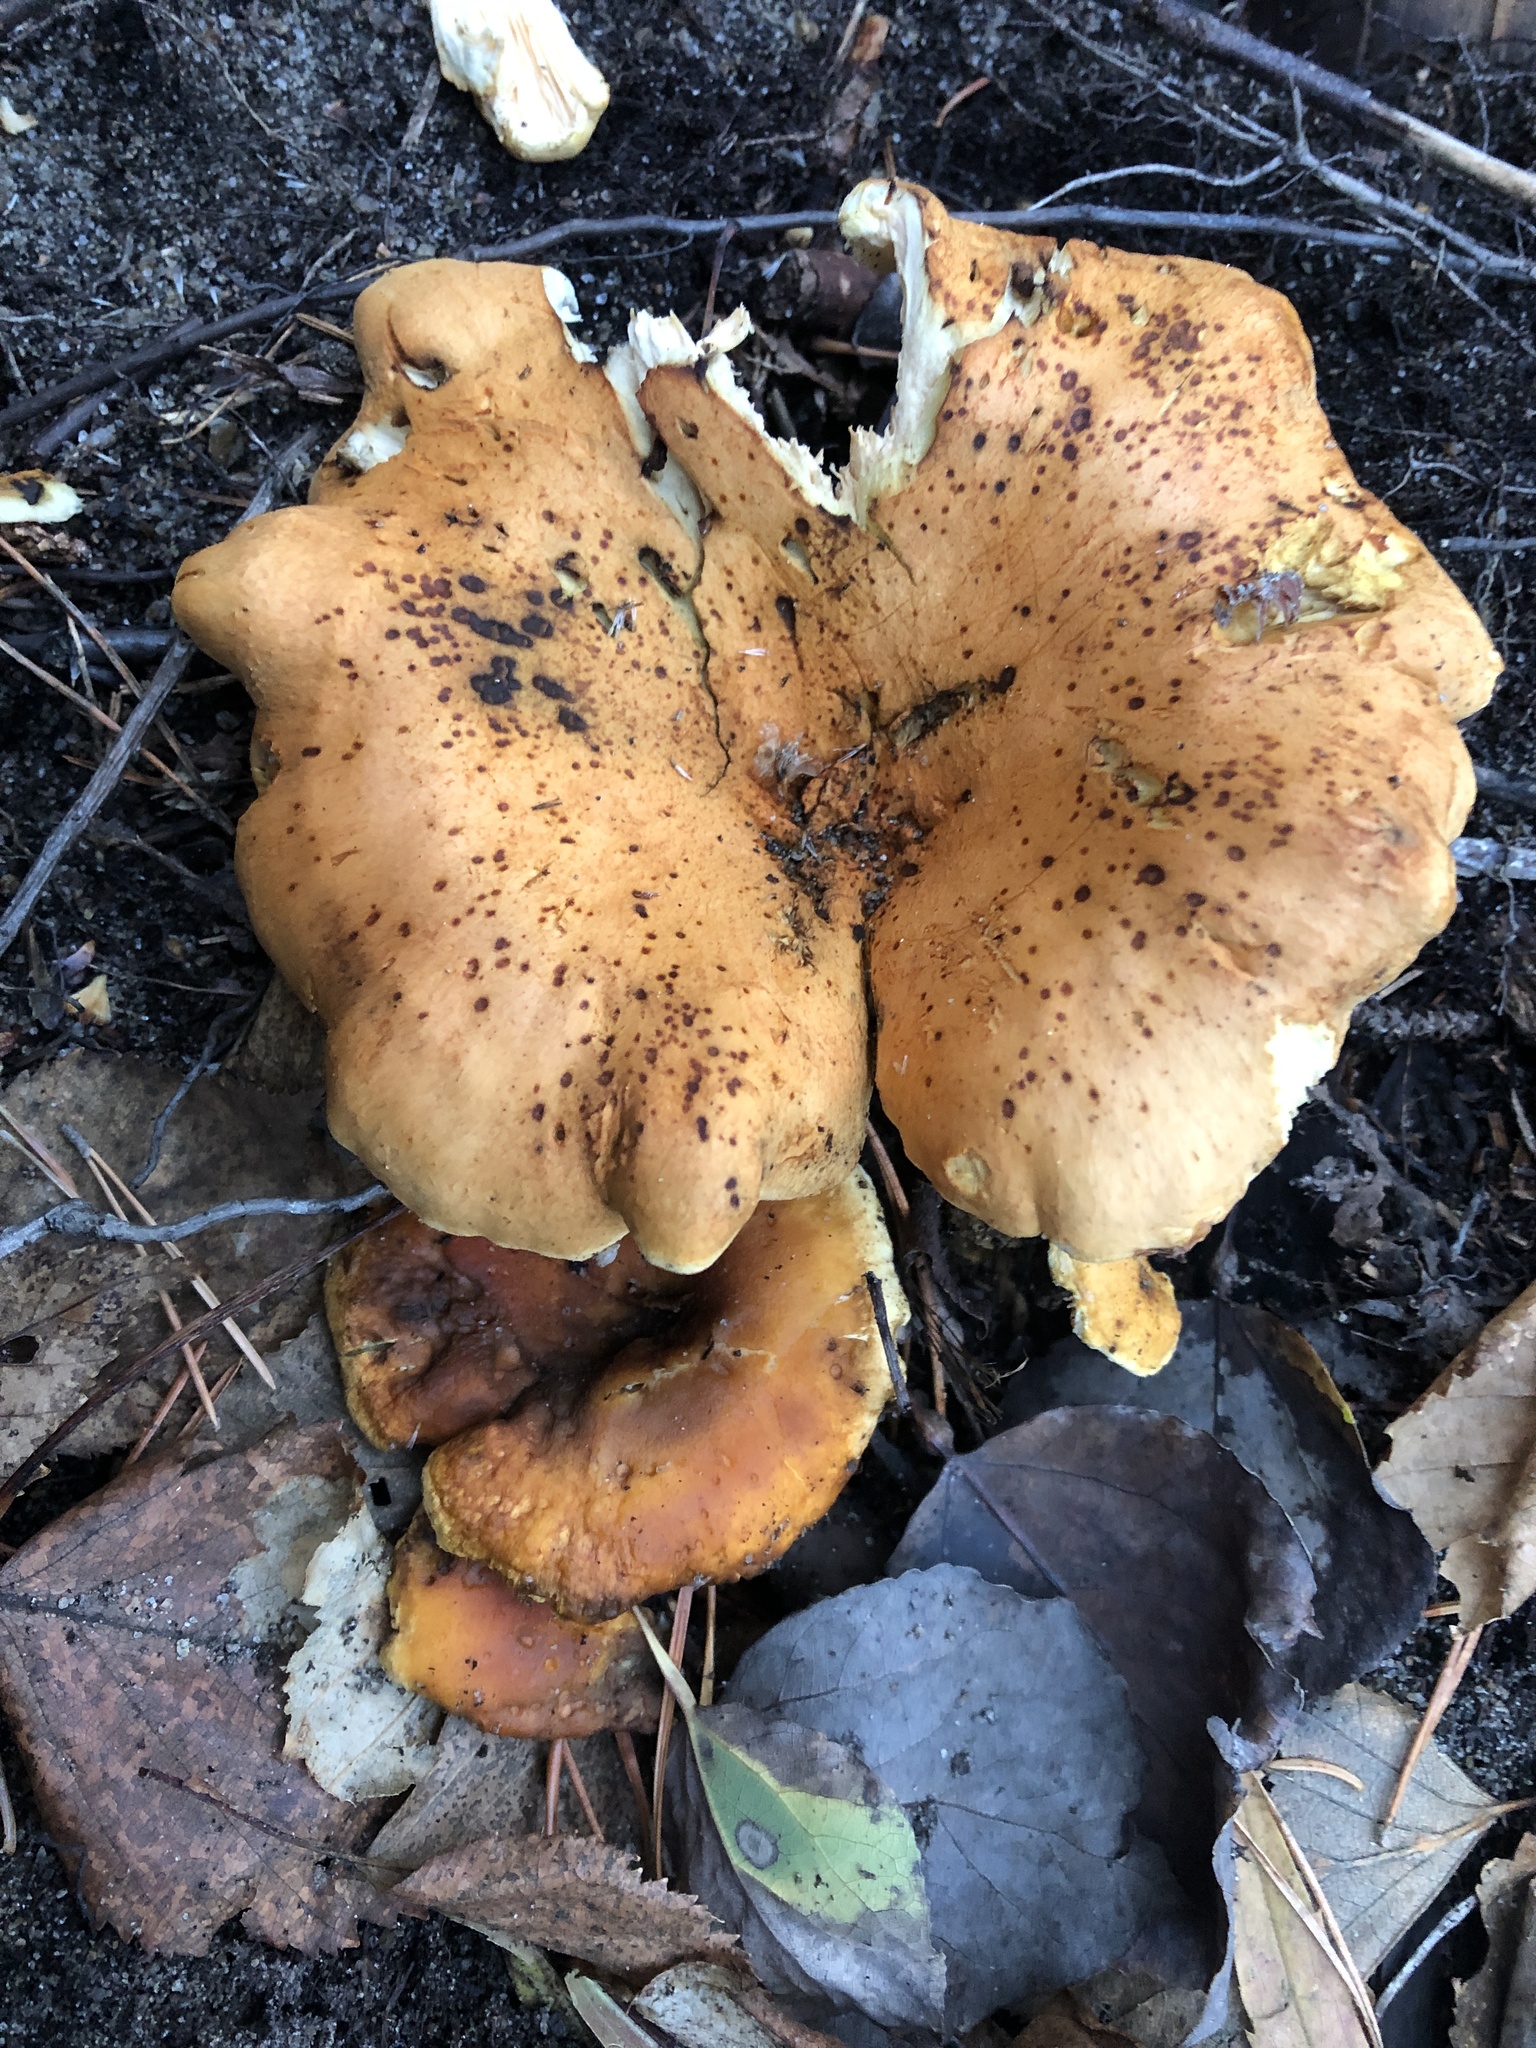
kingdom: Fungi
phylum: Basidiomycota
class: Agaricomycetes
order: Boletales
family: Hygrophoropsidaceae
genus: Hygrophoropsis
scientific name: Hygrophoropsis aurantiaca
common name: False chanterelle
